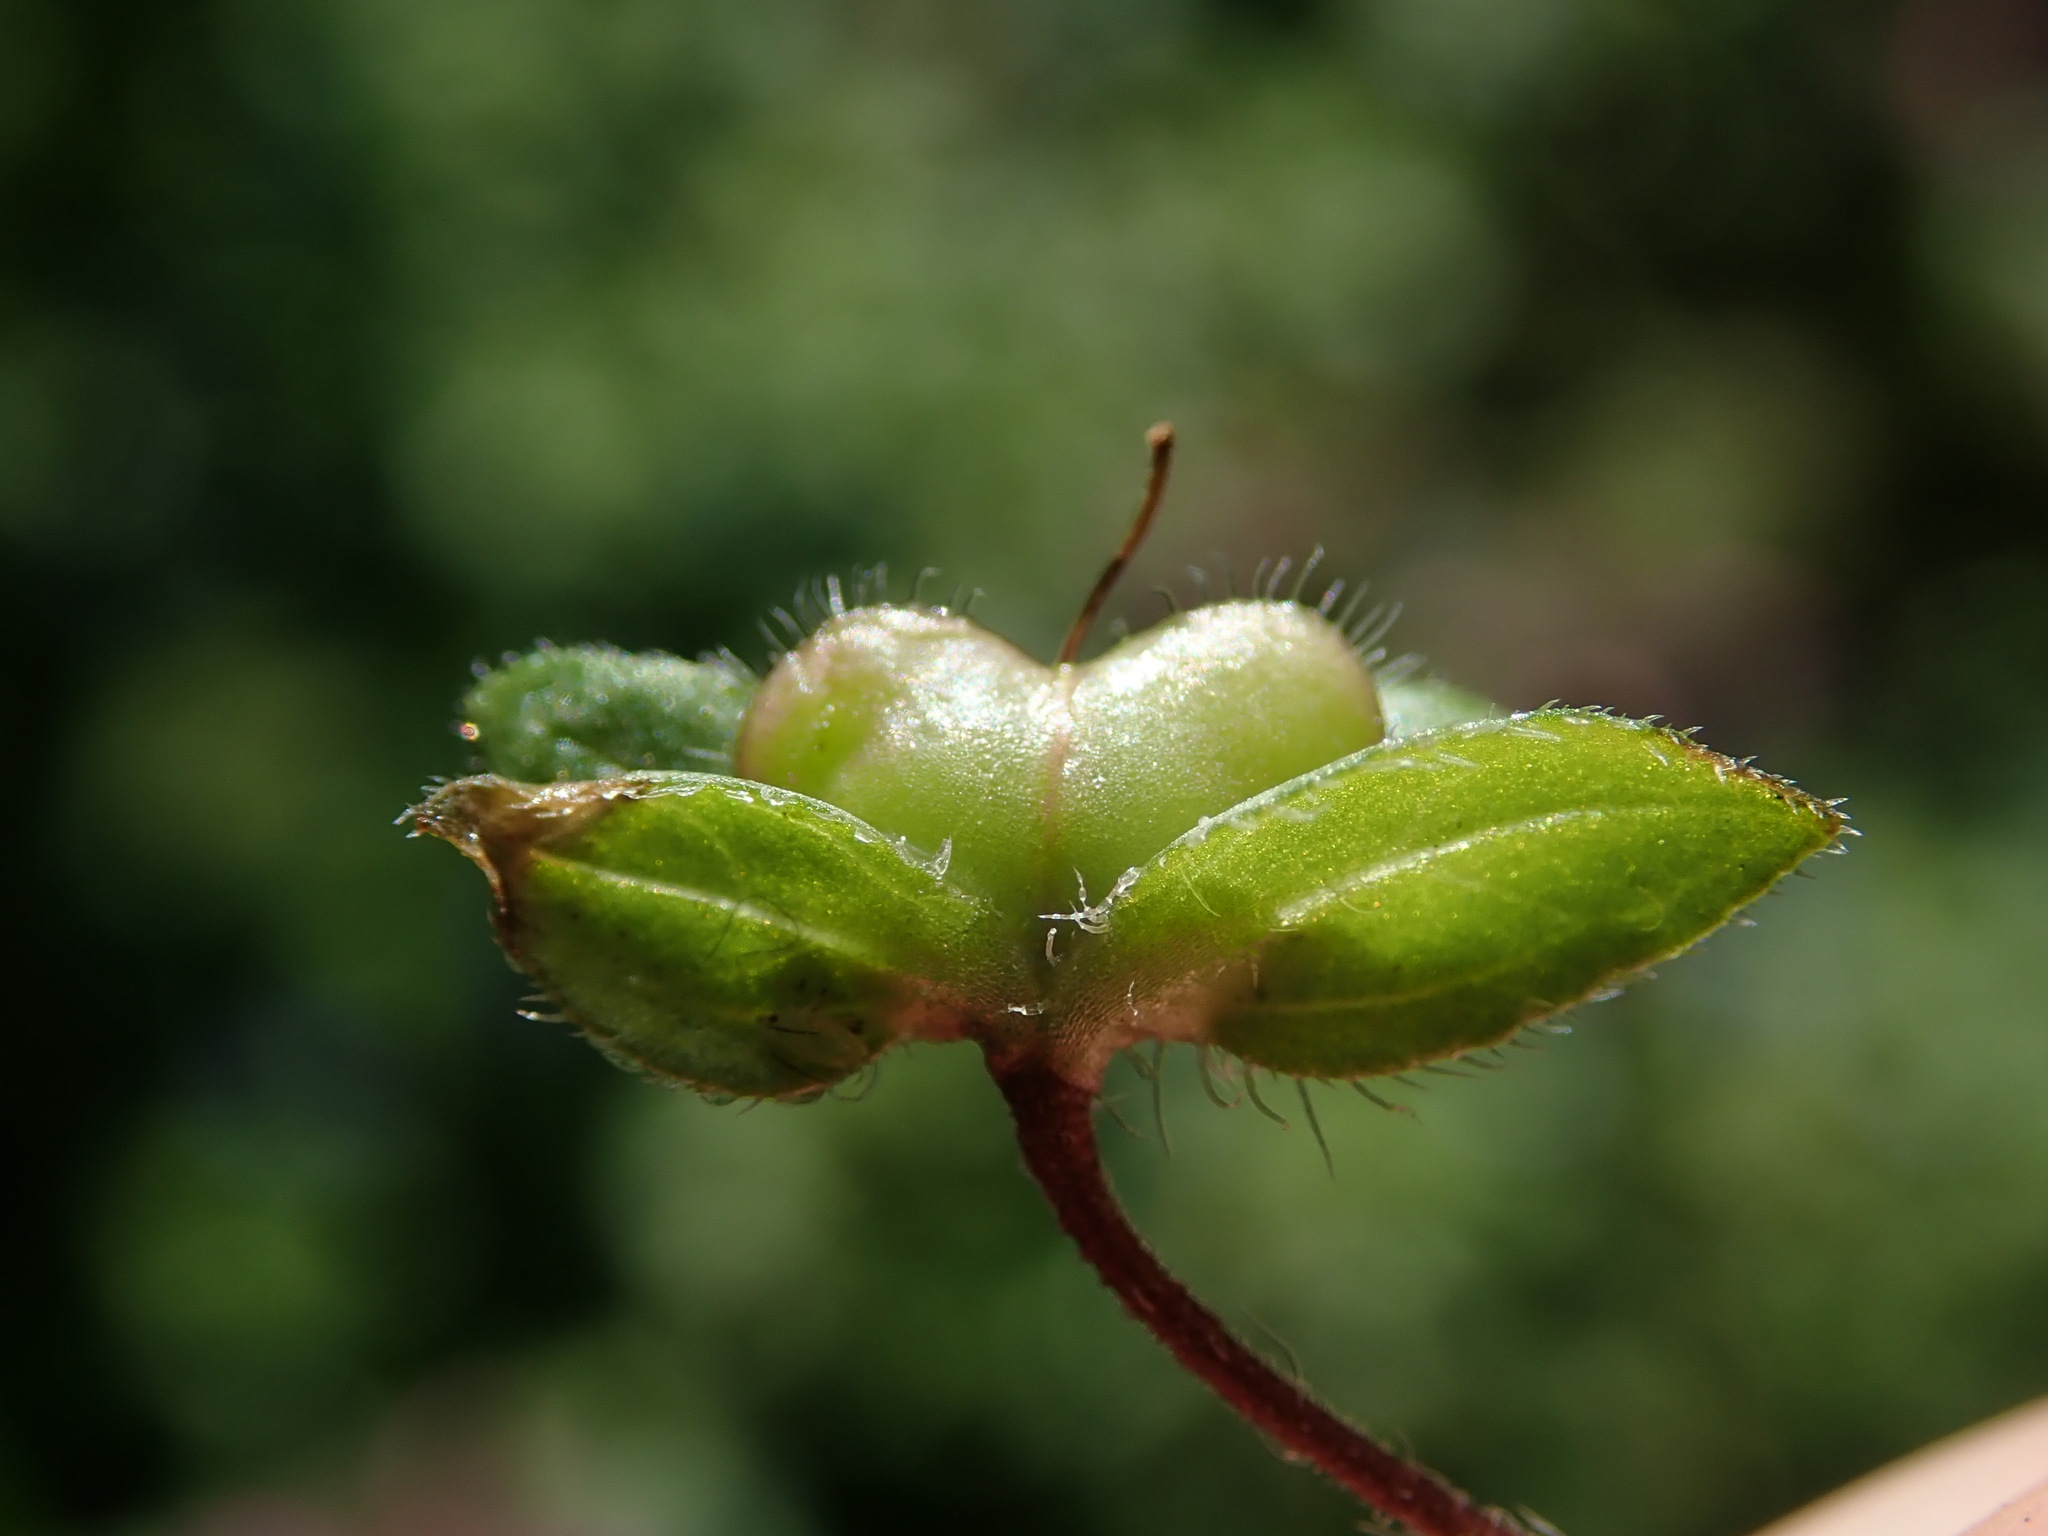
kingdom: Plantae
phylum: Tracheophyta
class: Magnoliopsida
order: Lamiales
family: Plantaginaceae
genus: Veronica
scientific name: Veronica persica
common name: Common field-speedwell
